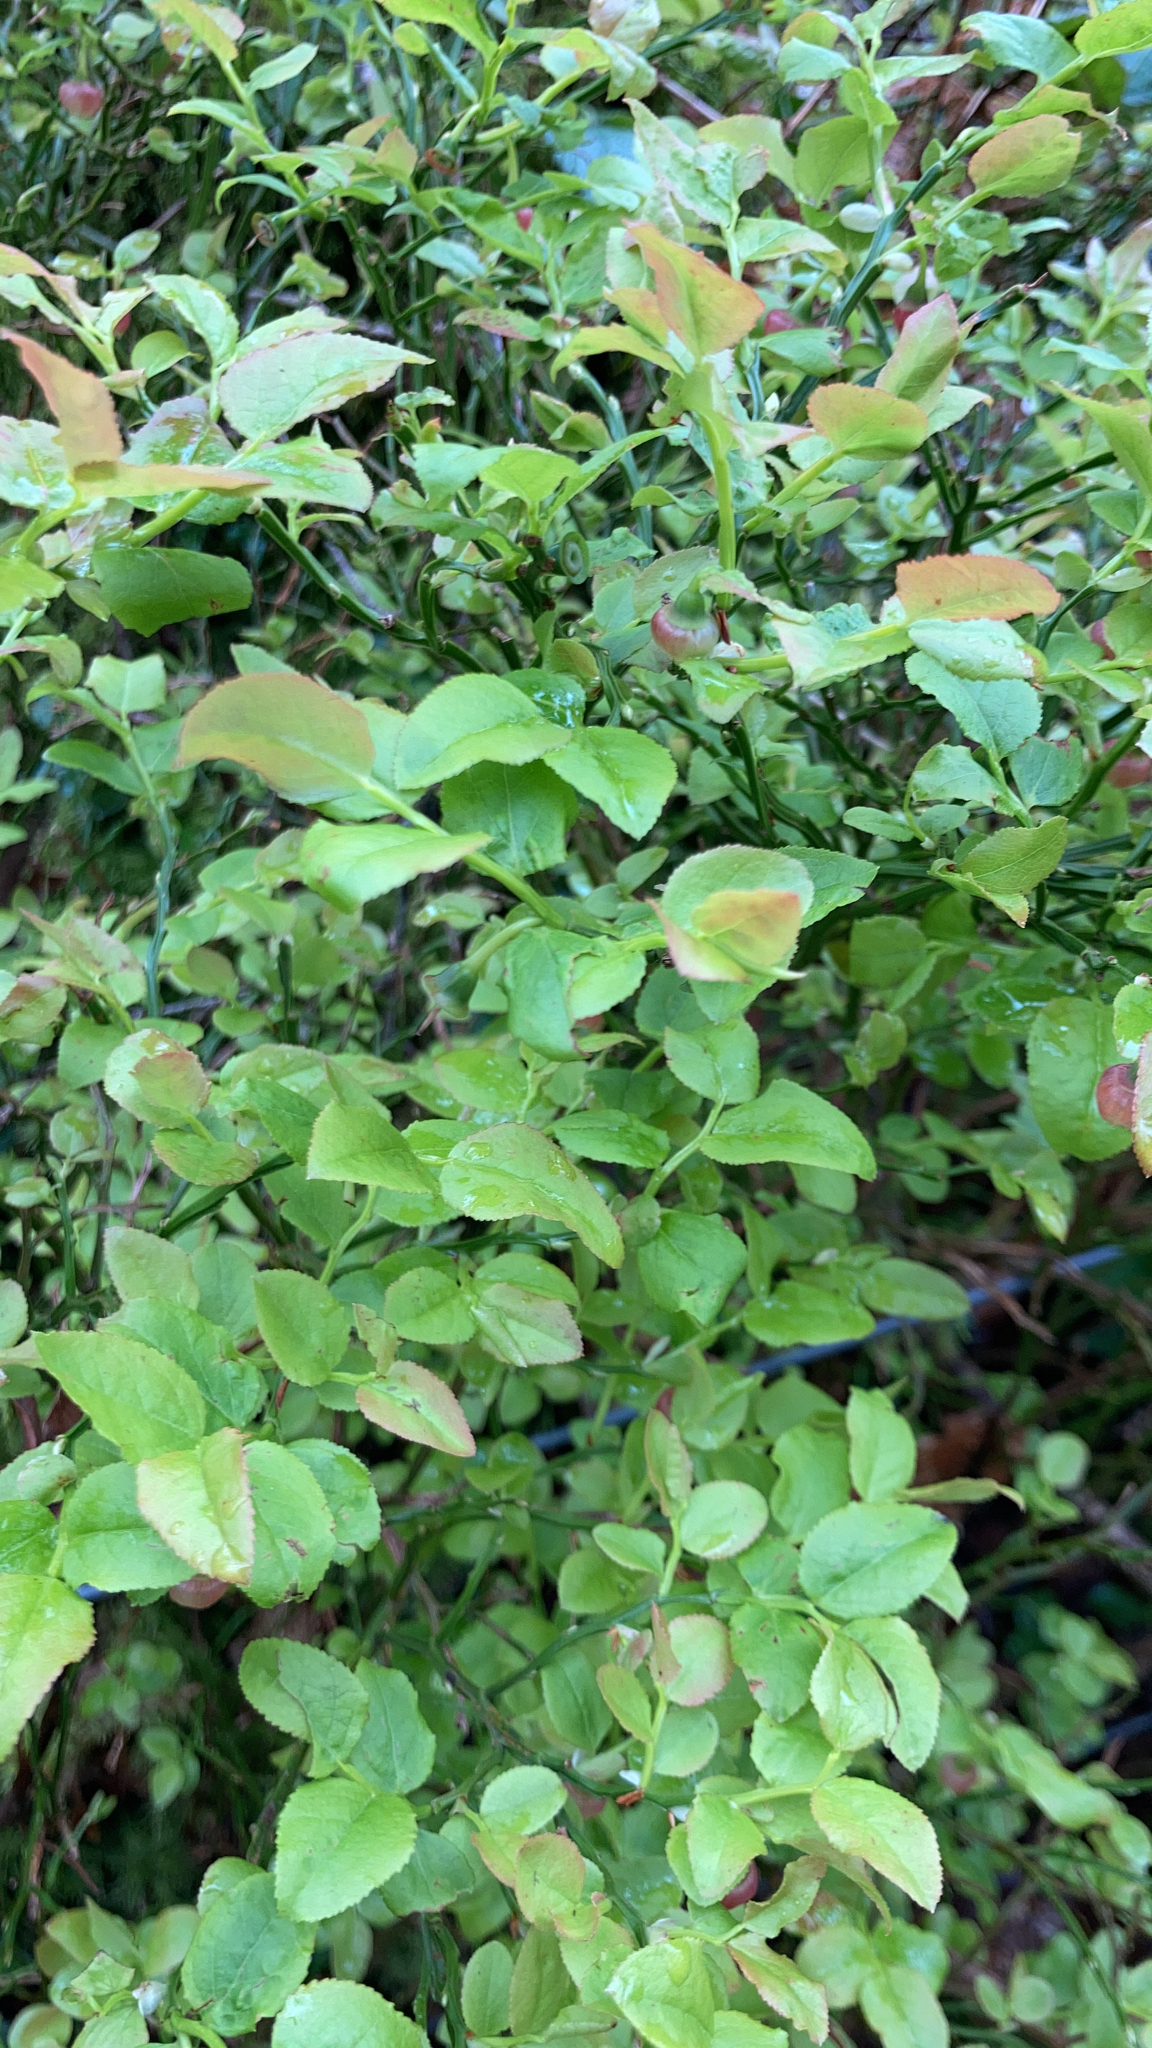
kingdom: Plantae
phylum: Tracheophyta
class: Magnoliopsida
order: Ericales
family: Ericaceae
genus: Vaccinium
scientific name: Vaccinium myrtillus
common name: Bilberry
